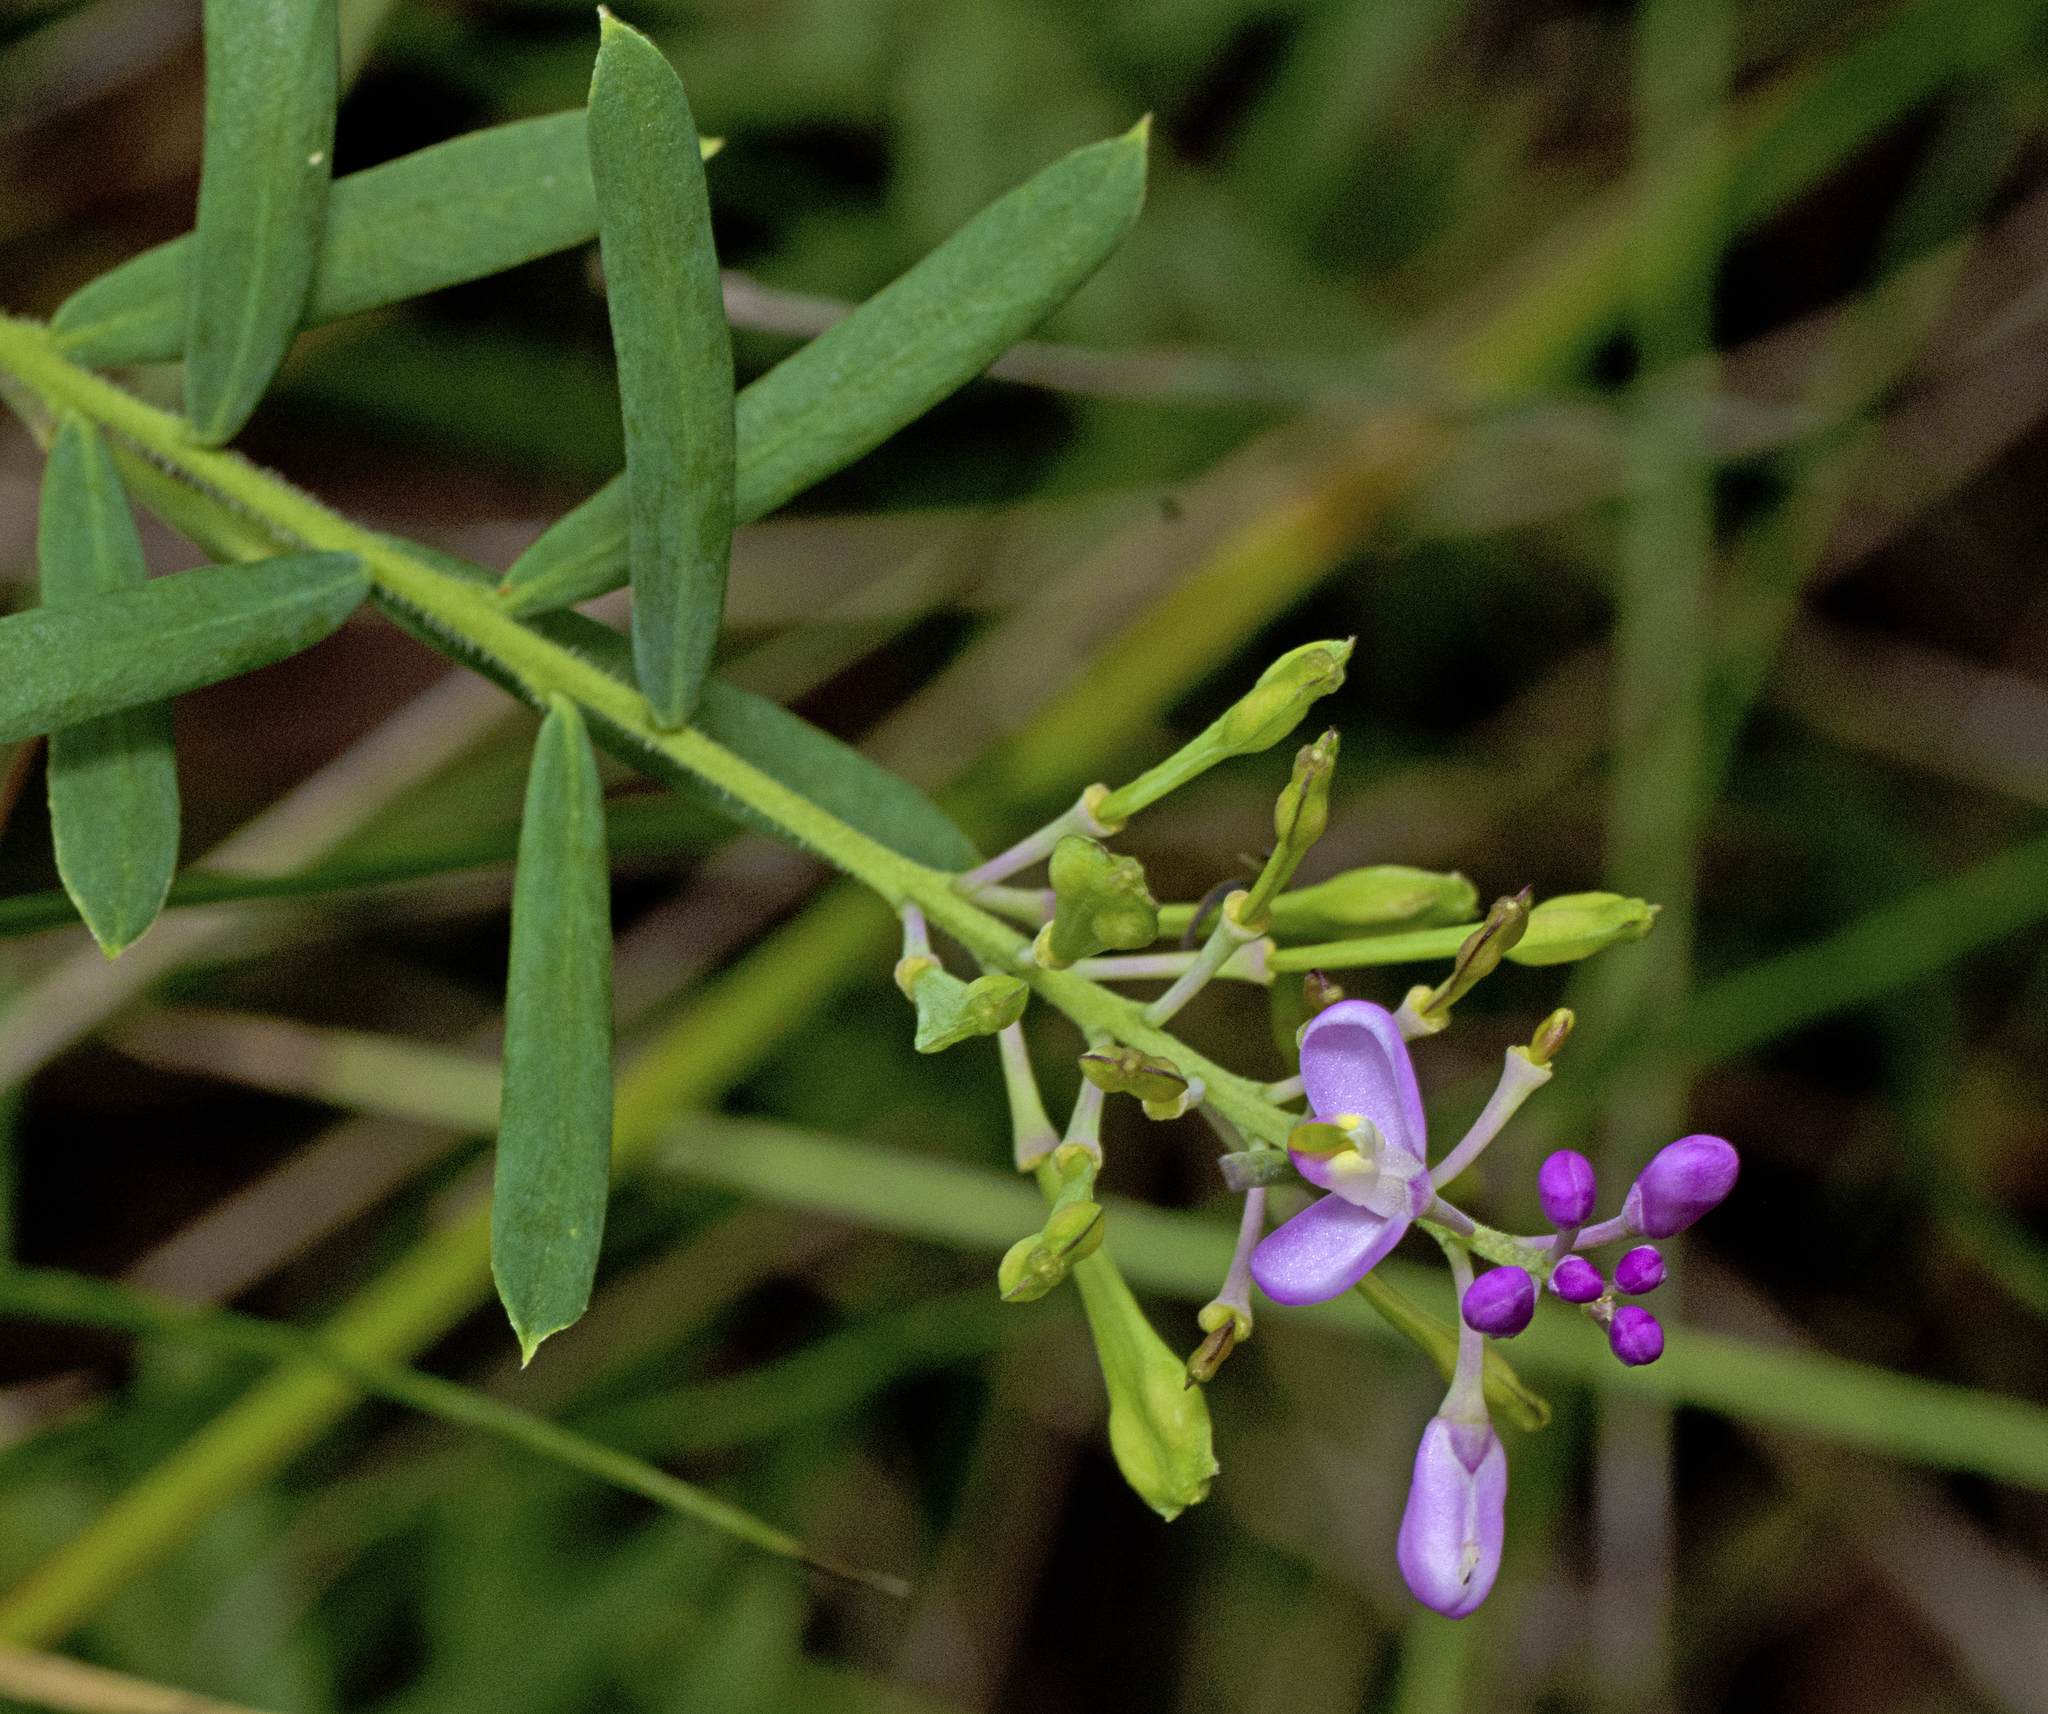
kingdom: Plantae
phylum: Tracheophyta
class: Magnoliopsida
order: Fabales
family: Polygalaceae
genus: Comesperma
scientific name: Comesperma ericinum
